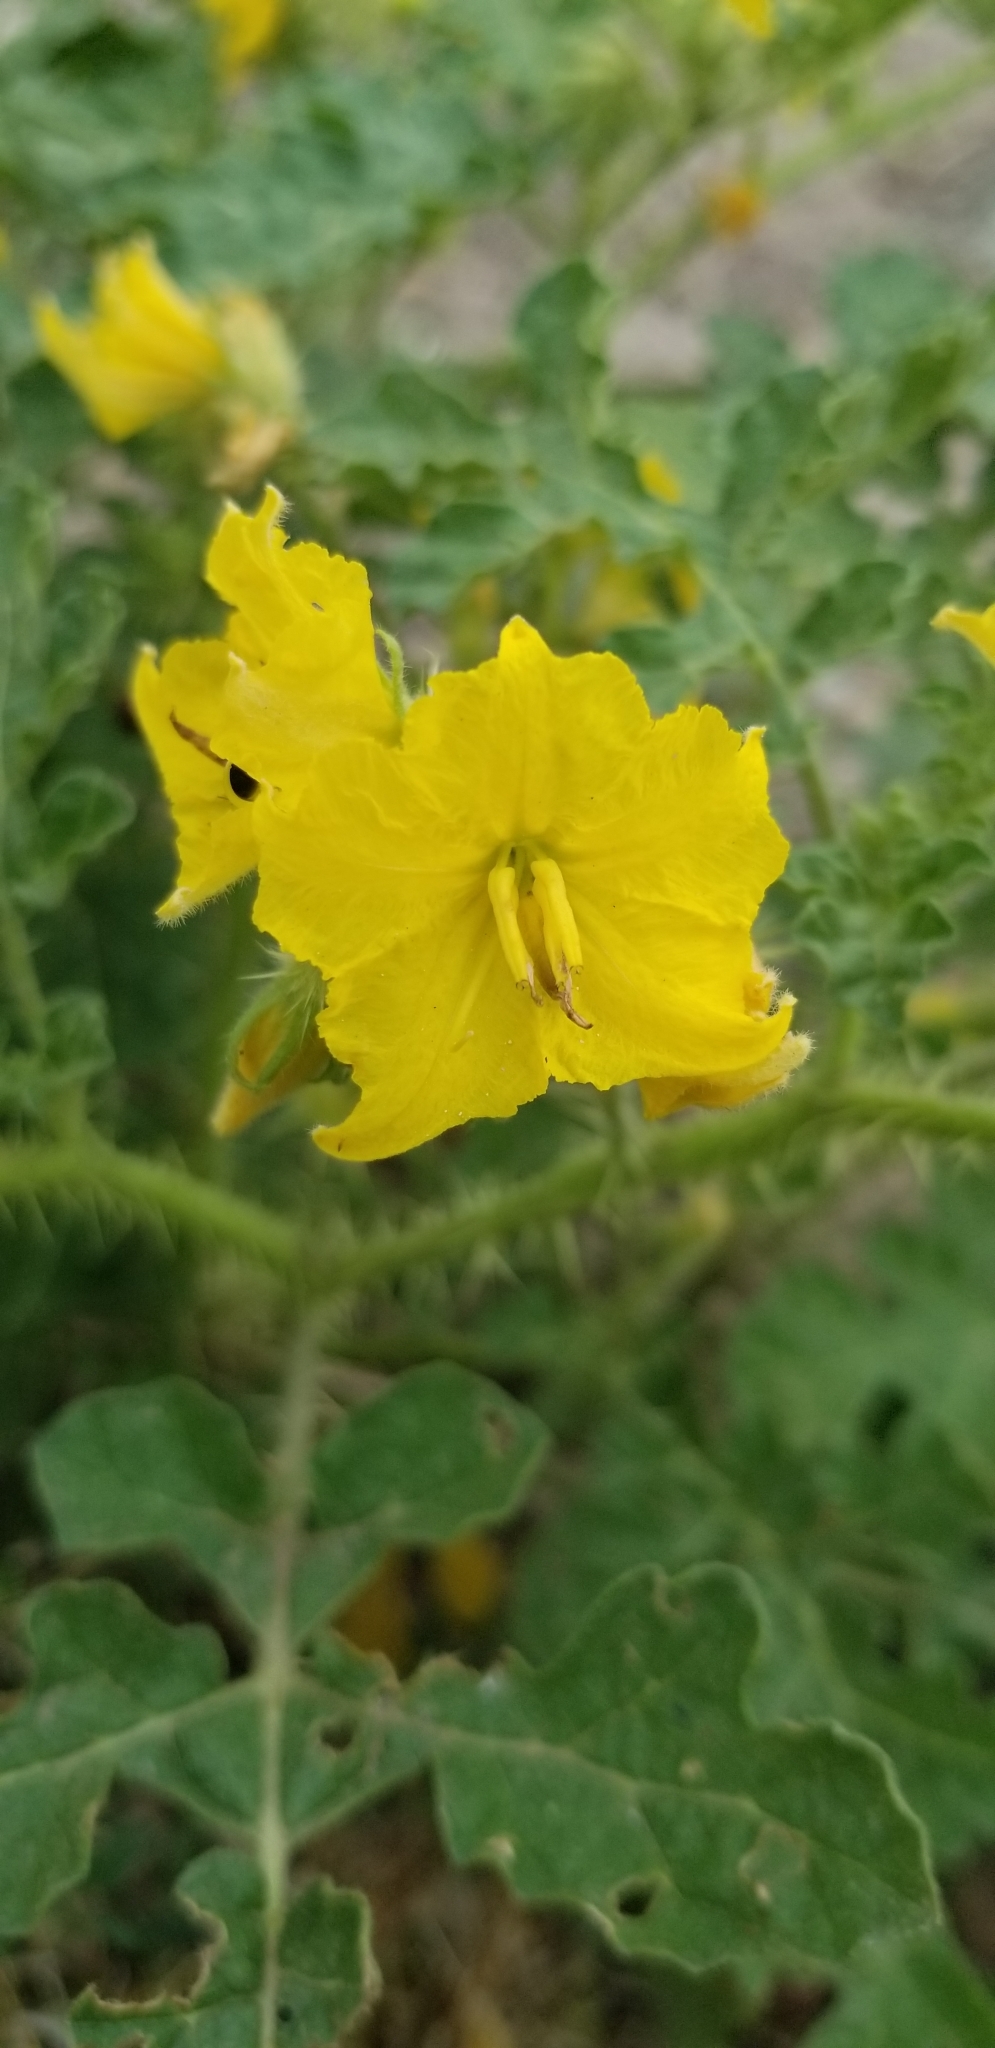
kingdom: Plantae
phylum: Tracheophyta
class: Magnoliopsida
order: Solanales
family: Solanaceae
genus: Solanum
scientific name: Solanum angustifolium
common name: Buffalobur nightshade
